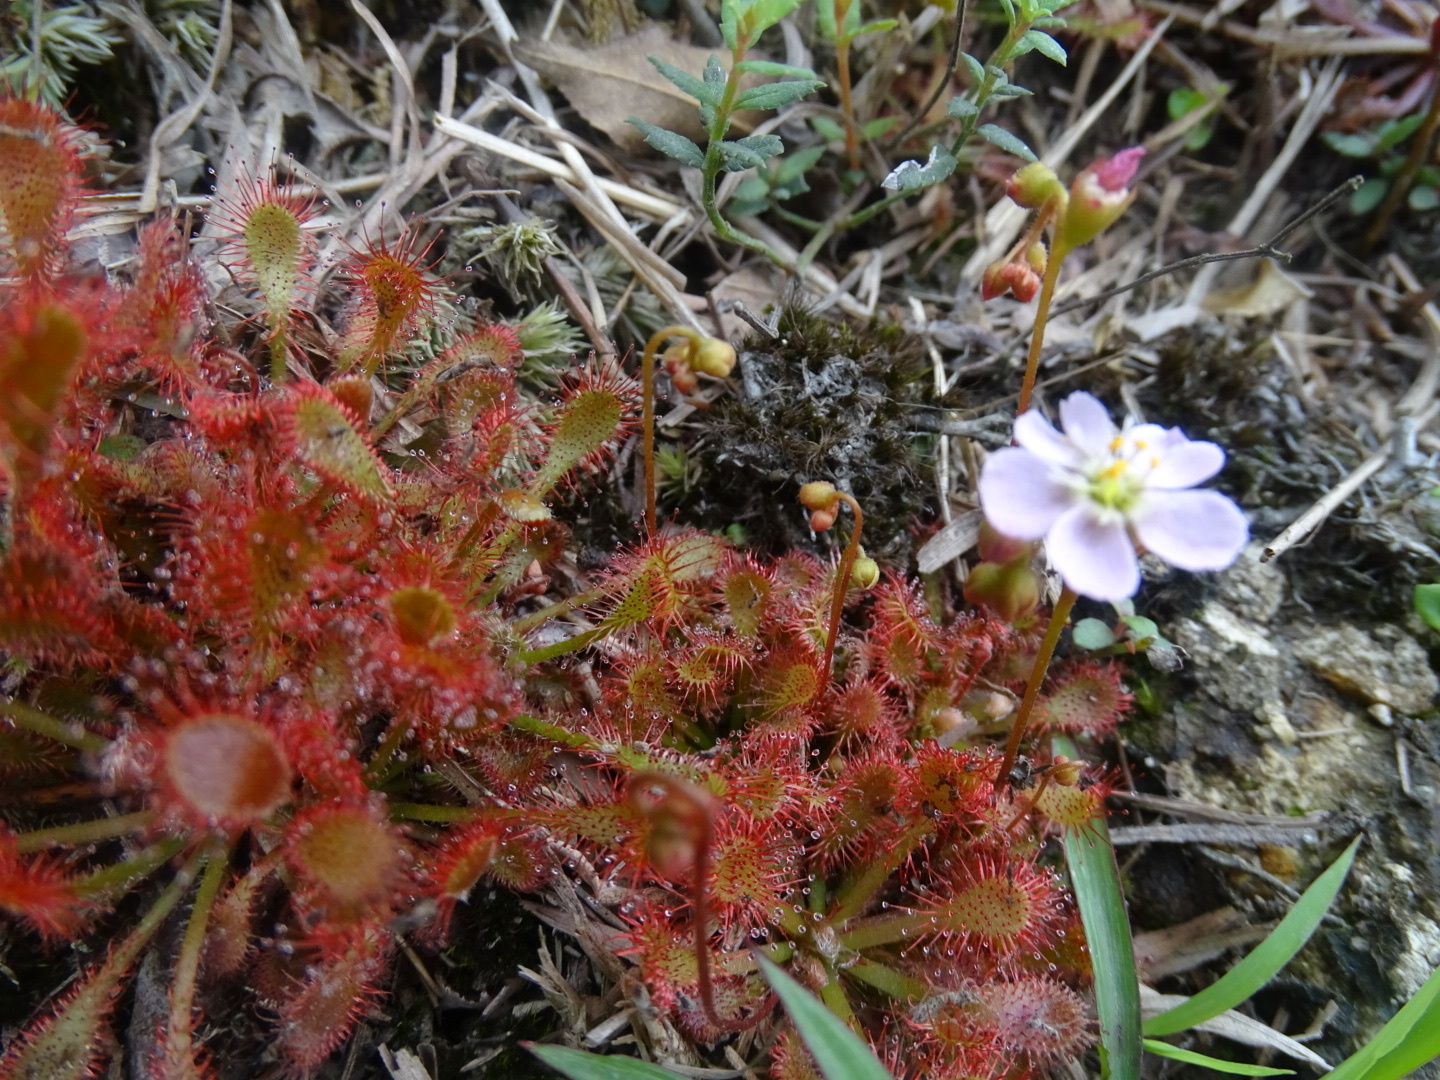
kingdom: Plantae
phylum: Tracheophyta
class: Magnoliopsida
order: Caryophyllales
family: Droseraceae
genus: Drosera
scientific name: Drosera spatulata
